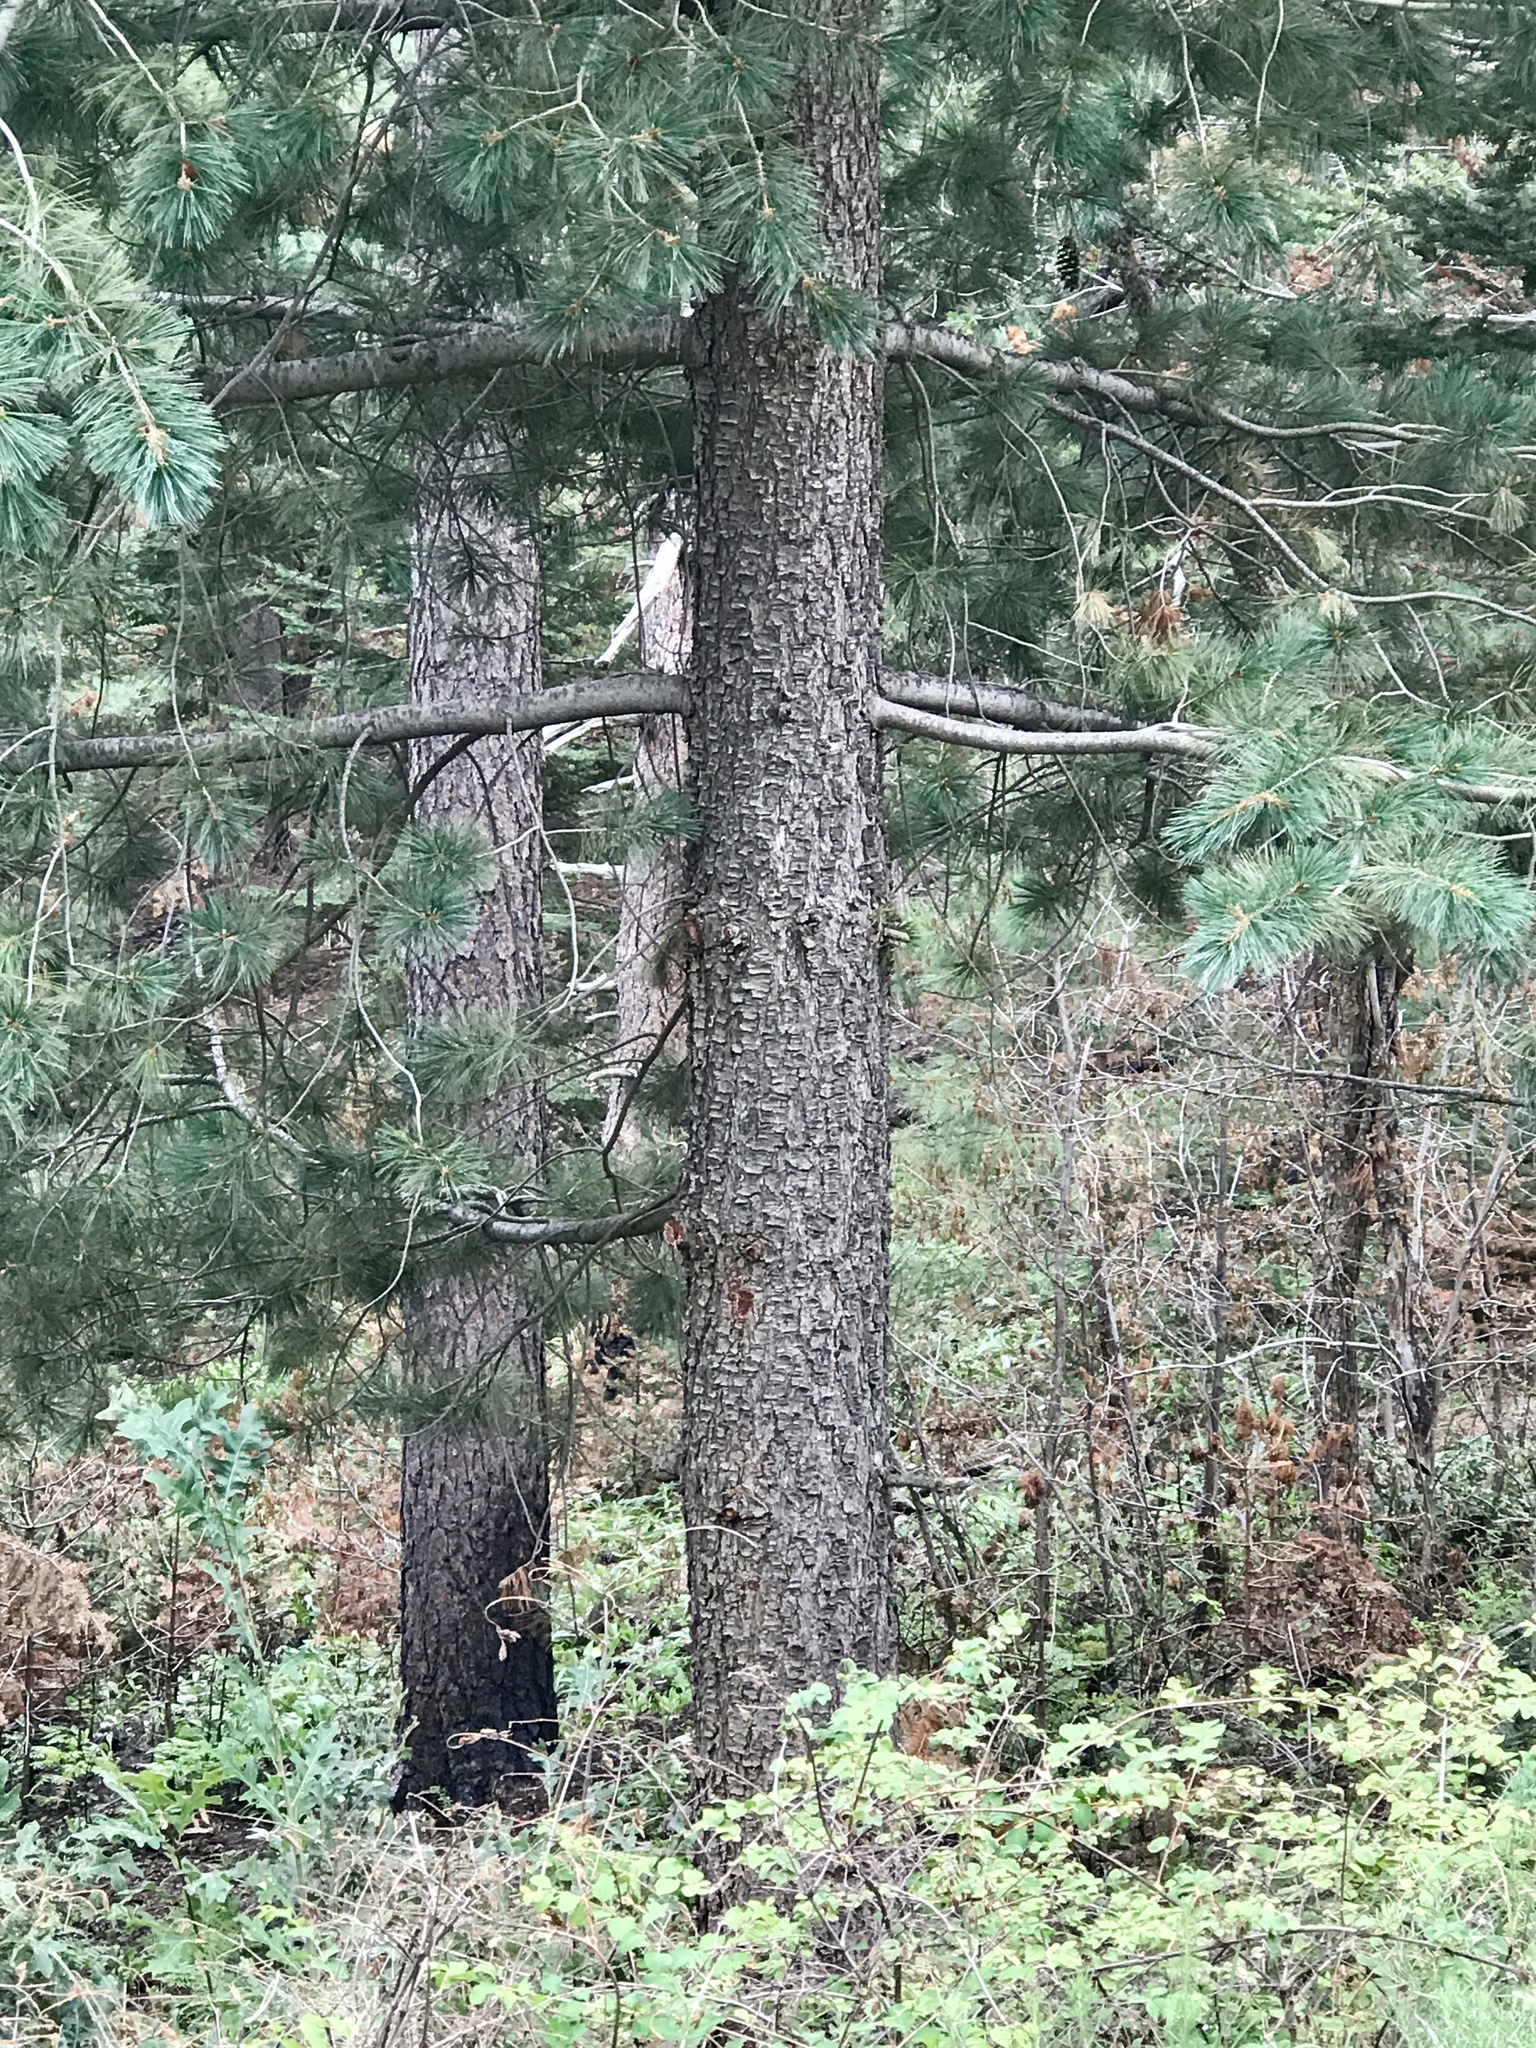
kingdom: Plantae
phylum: Tracheophyta
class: Pinopsida
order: Pinales
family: Pinaceae
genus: Pinus
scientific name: Pinus strobiformis
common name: Southwestern white pine
